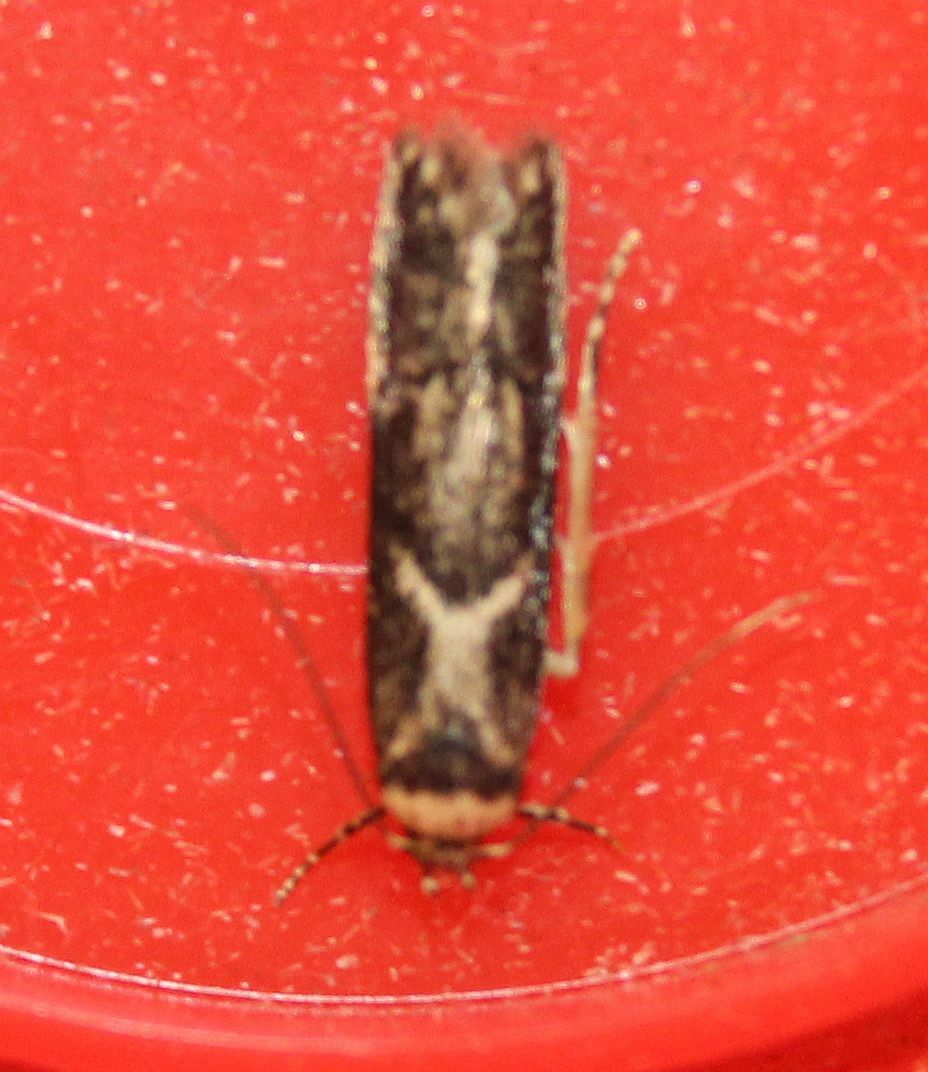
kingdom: Animalia
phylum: Arthropoda
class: Insecta
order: Lepidoptera
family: Blastobasidae
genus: Blastobasis
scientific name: Blastobasis adustella
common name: Dingy dowd
